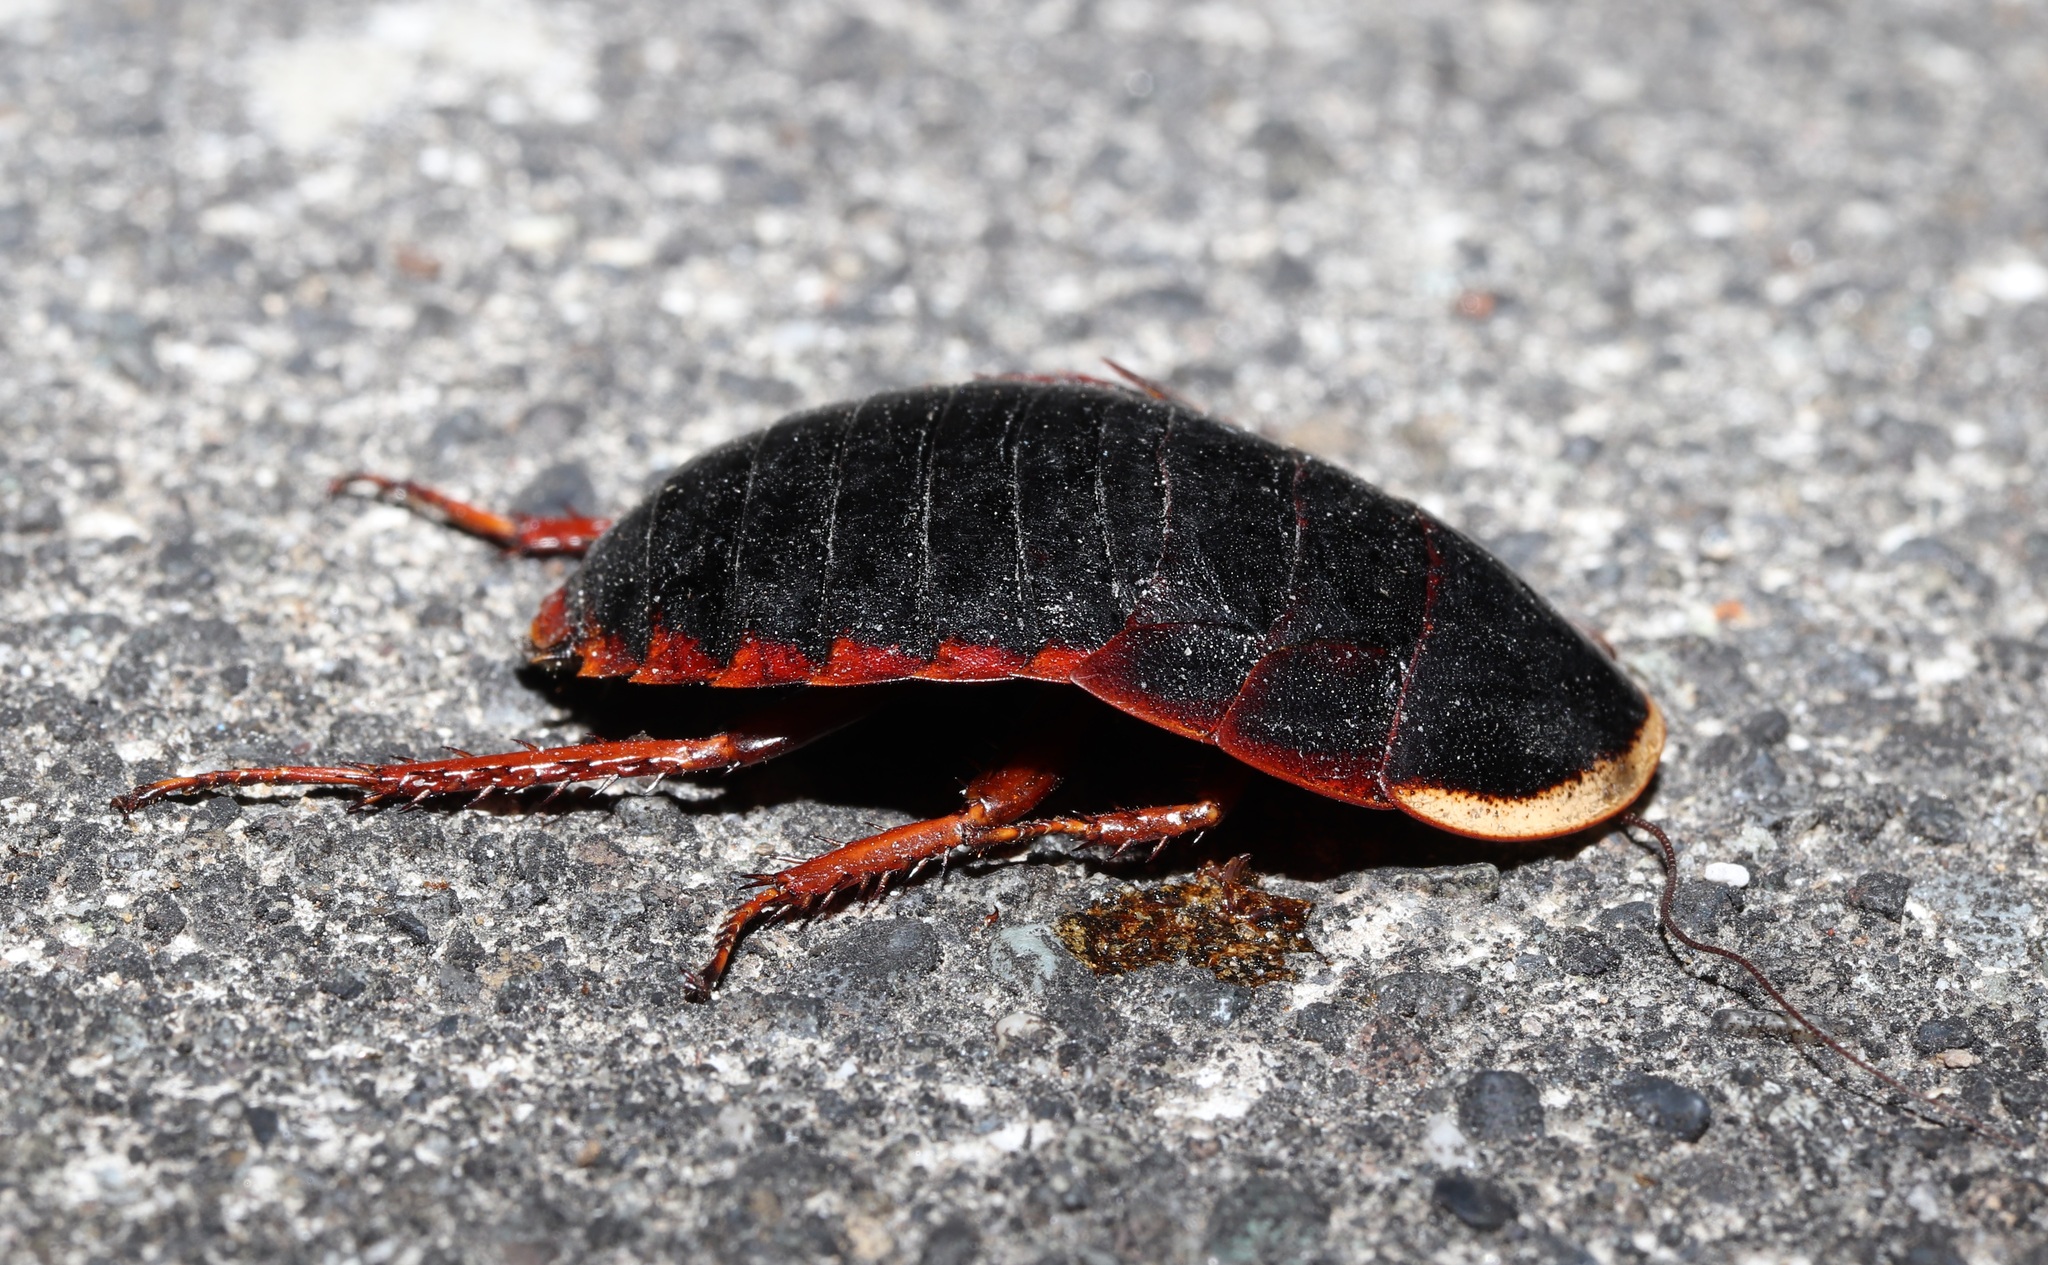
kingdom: Animalia
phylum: Arthropoda
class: Insecta
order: Blattodea
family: Blaberidae
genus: Opisthoplatia
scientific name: Opisthoplatia orientalis
